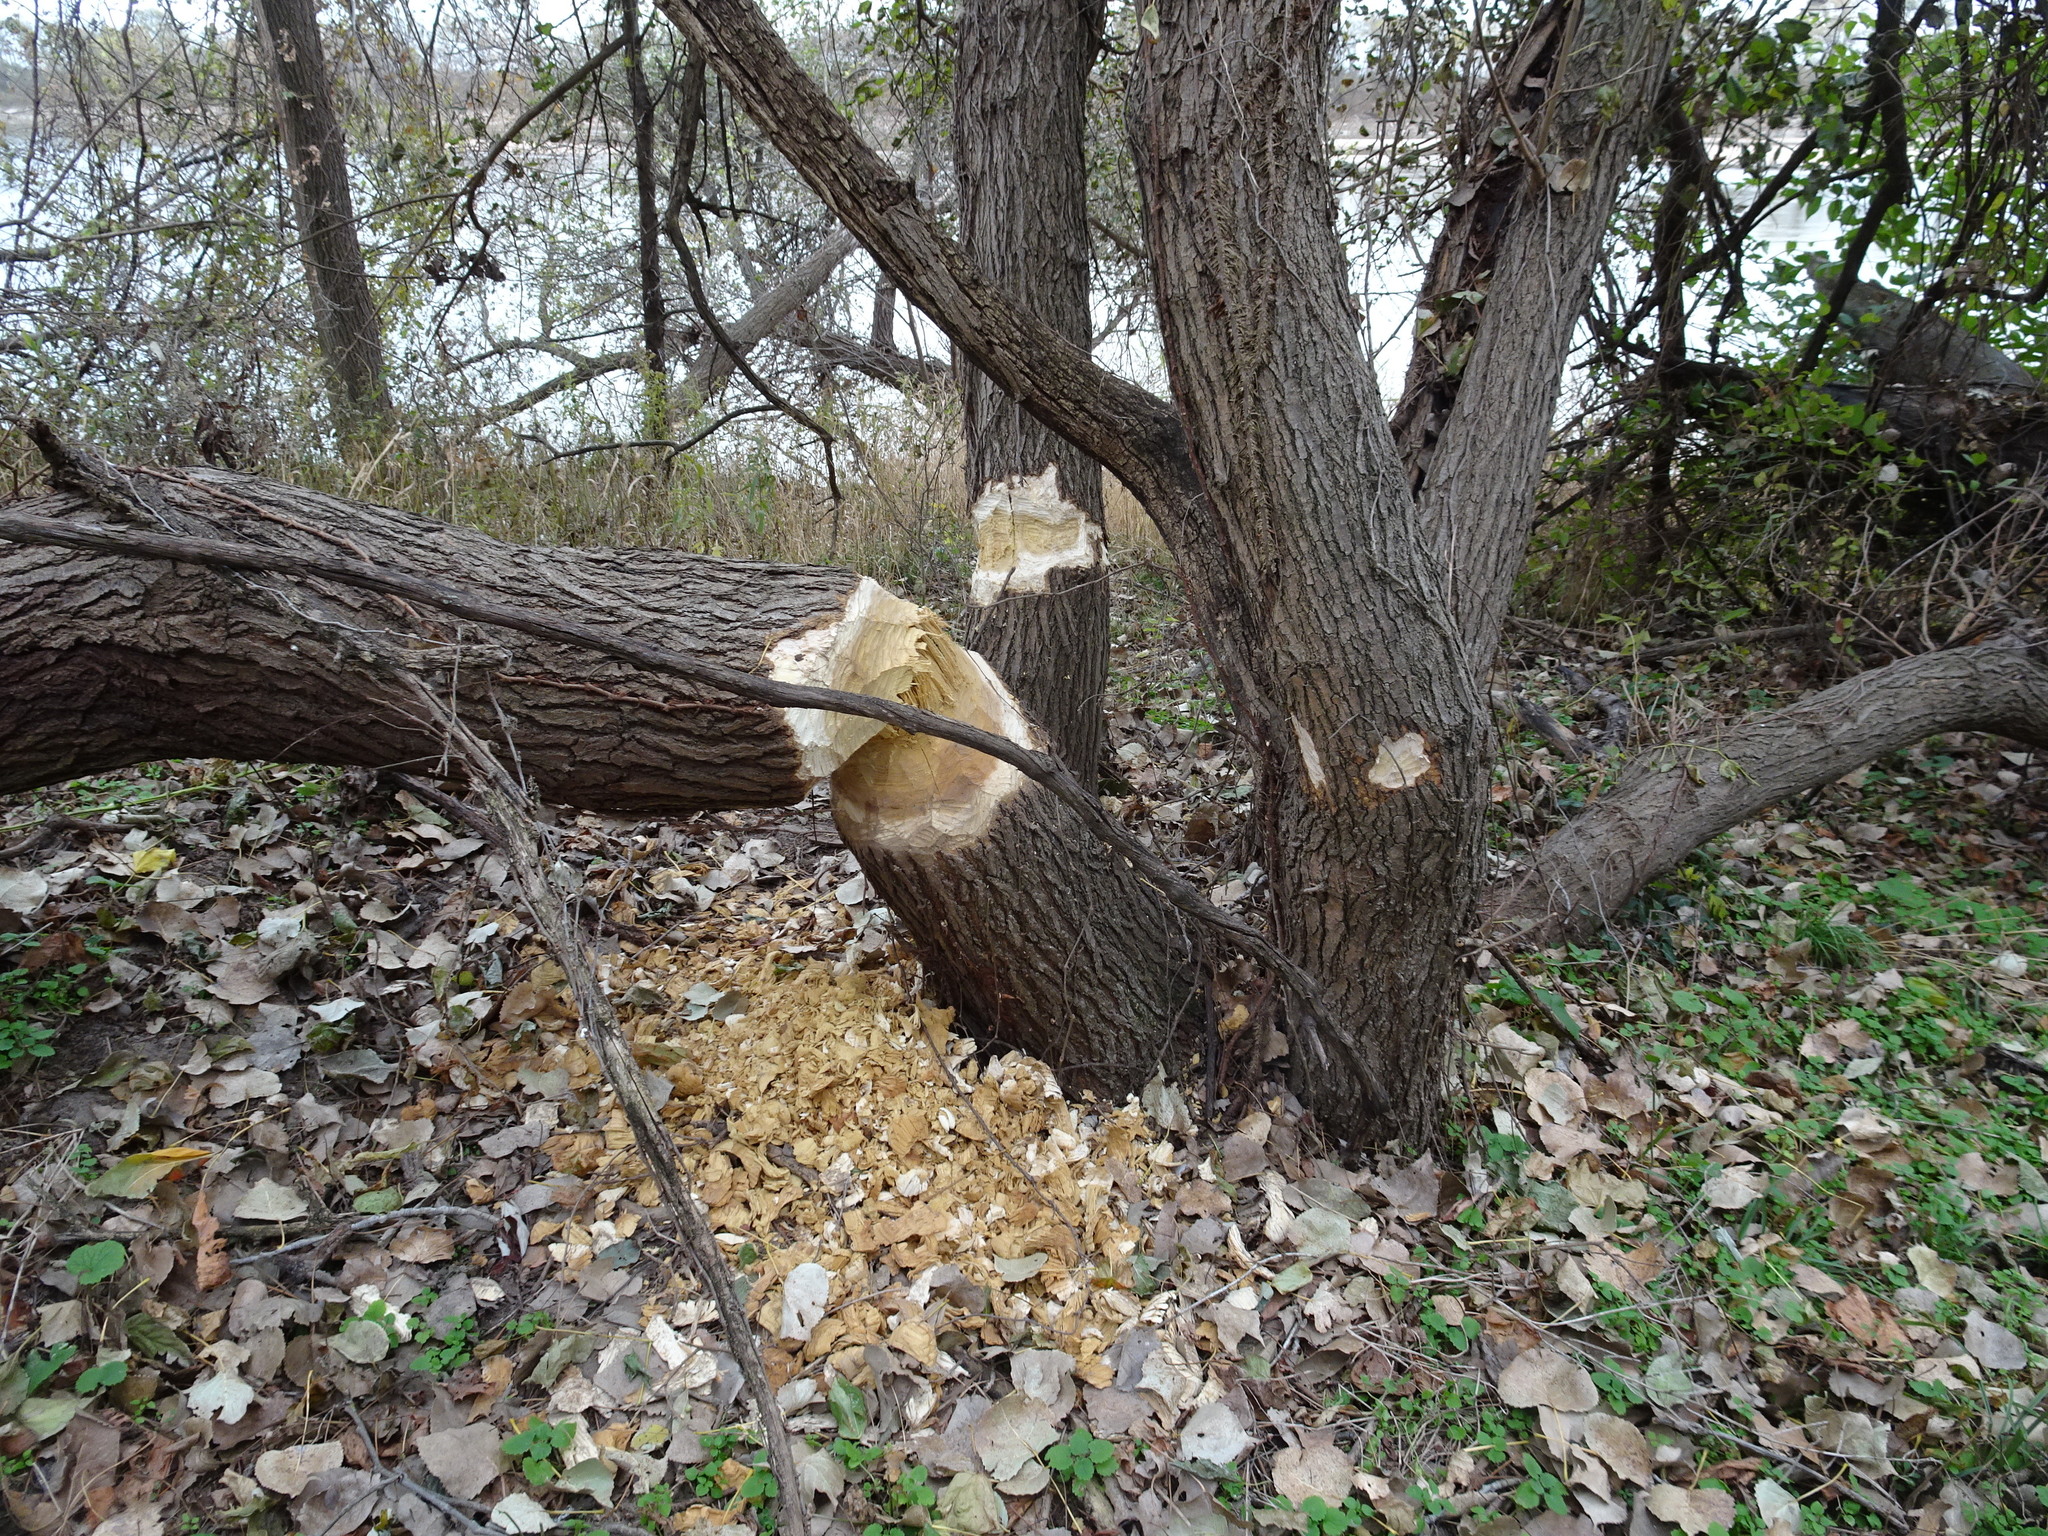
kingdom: Animalia
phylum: Chordata
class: Mammalia
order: Rodentia
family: Castoridae
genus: Castor
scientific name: Castor canadensis
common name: American beaver
